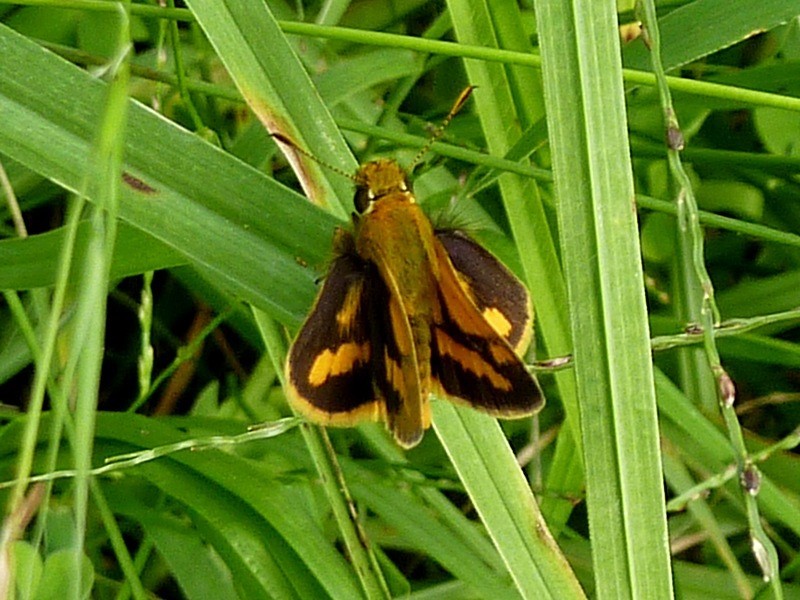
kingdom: Animalia
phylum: Arthropoda
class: Insecta
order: Lepidoptera
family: Hesperiidae
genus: Ocybadistes
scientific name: Ocybadistes flavovittata
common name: Narrow-brand grass-dart
